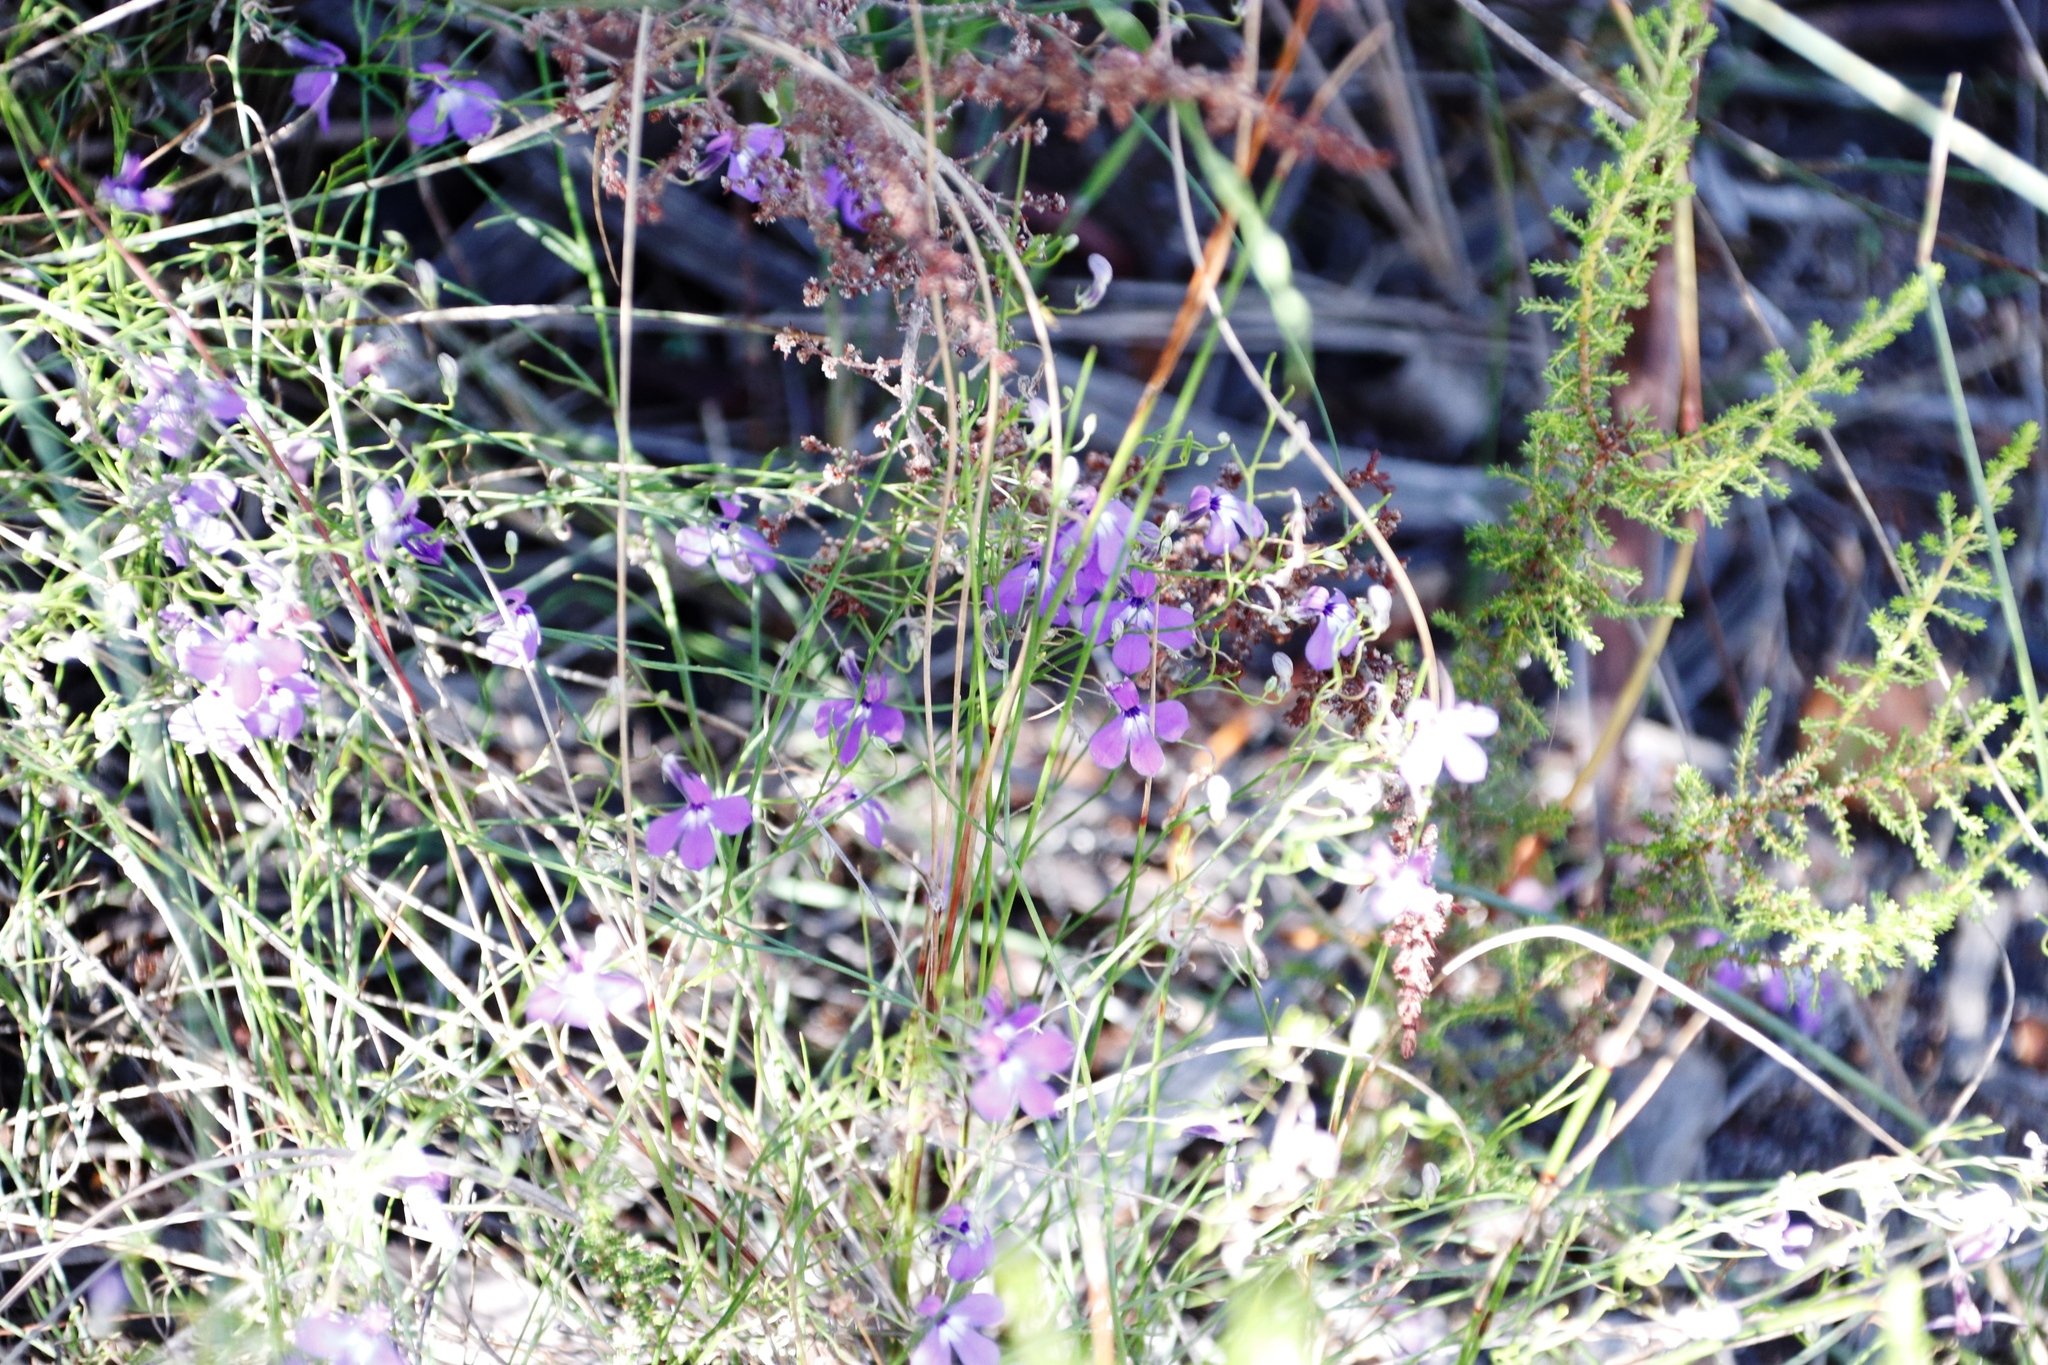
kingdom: Plantae
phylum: Tracheophyta
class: Magnoliopsida
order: Asterales
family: Campanulaceae
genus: Lobelia
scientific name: Lobelia setacea
